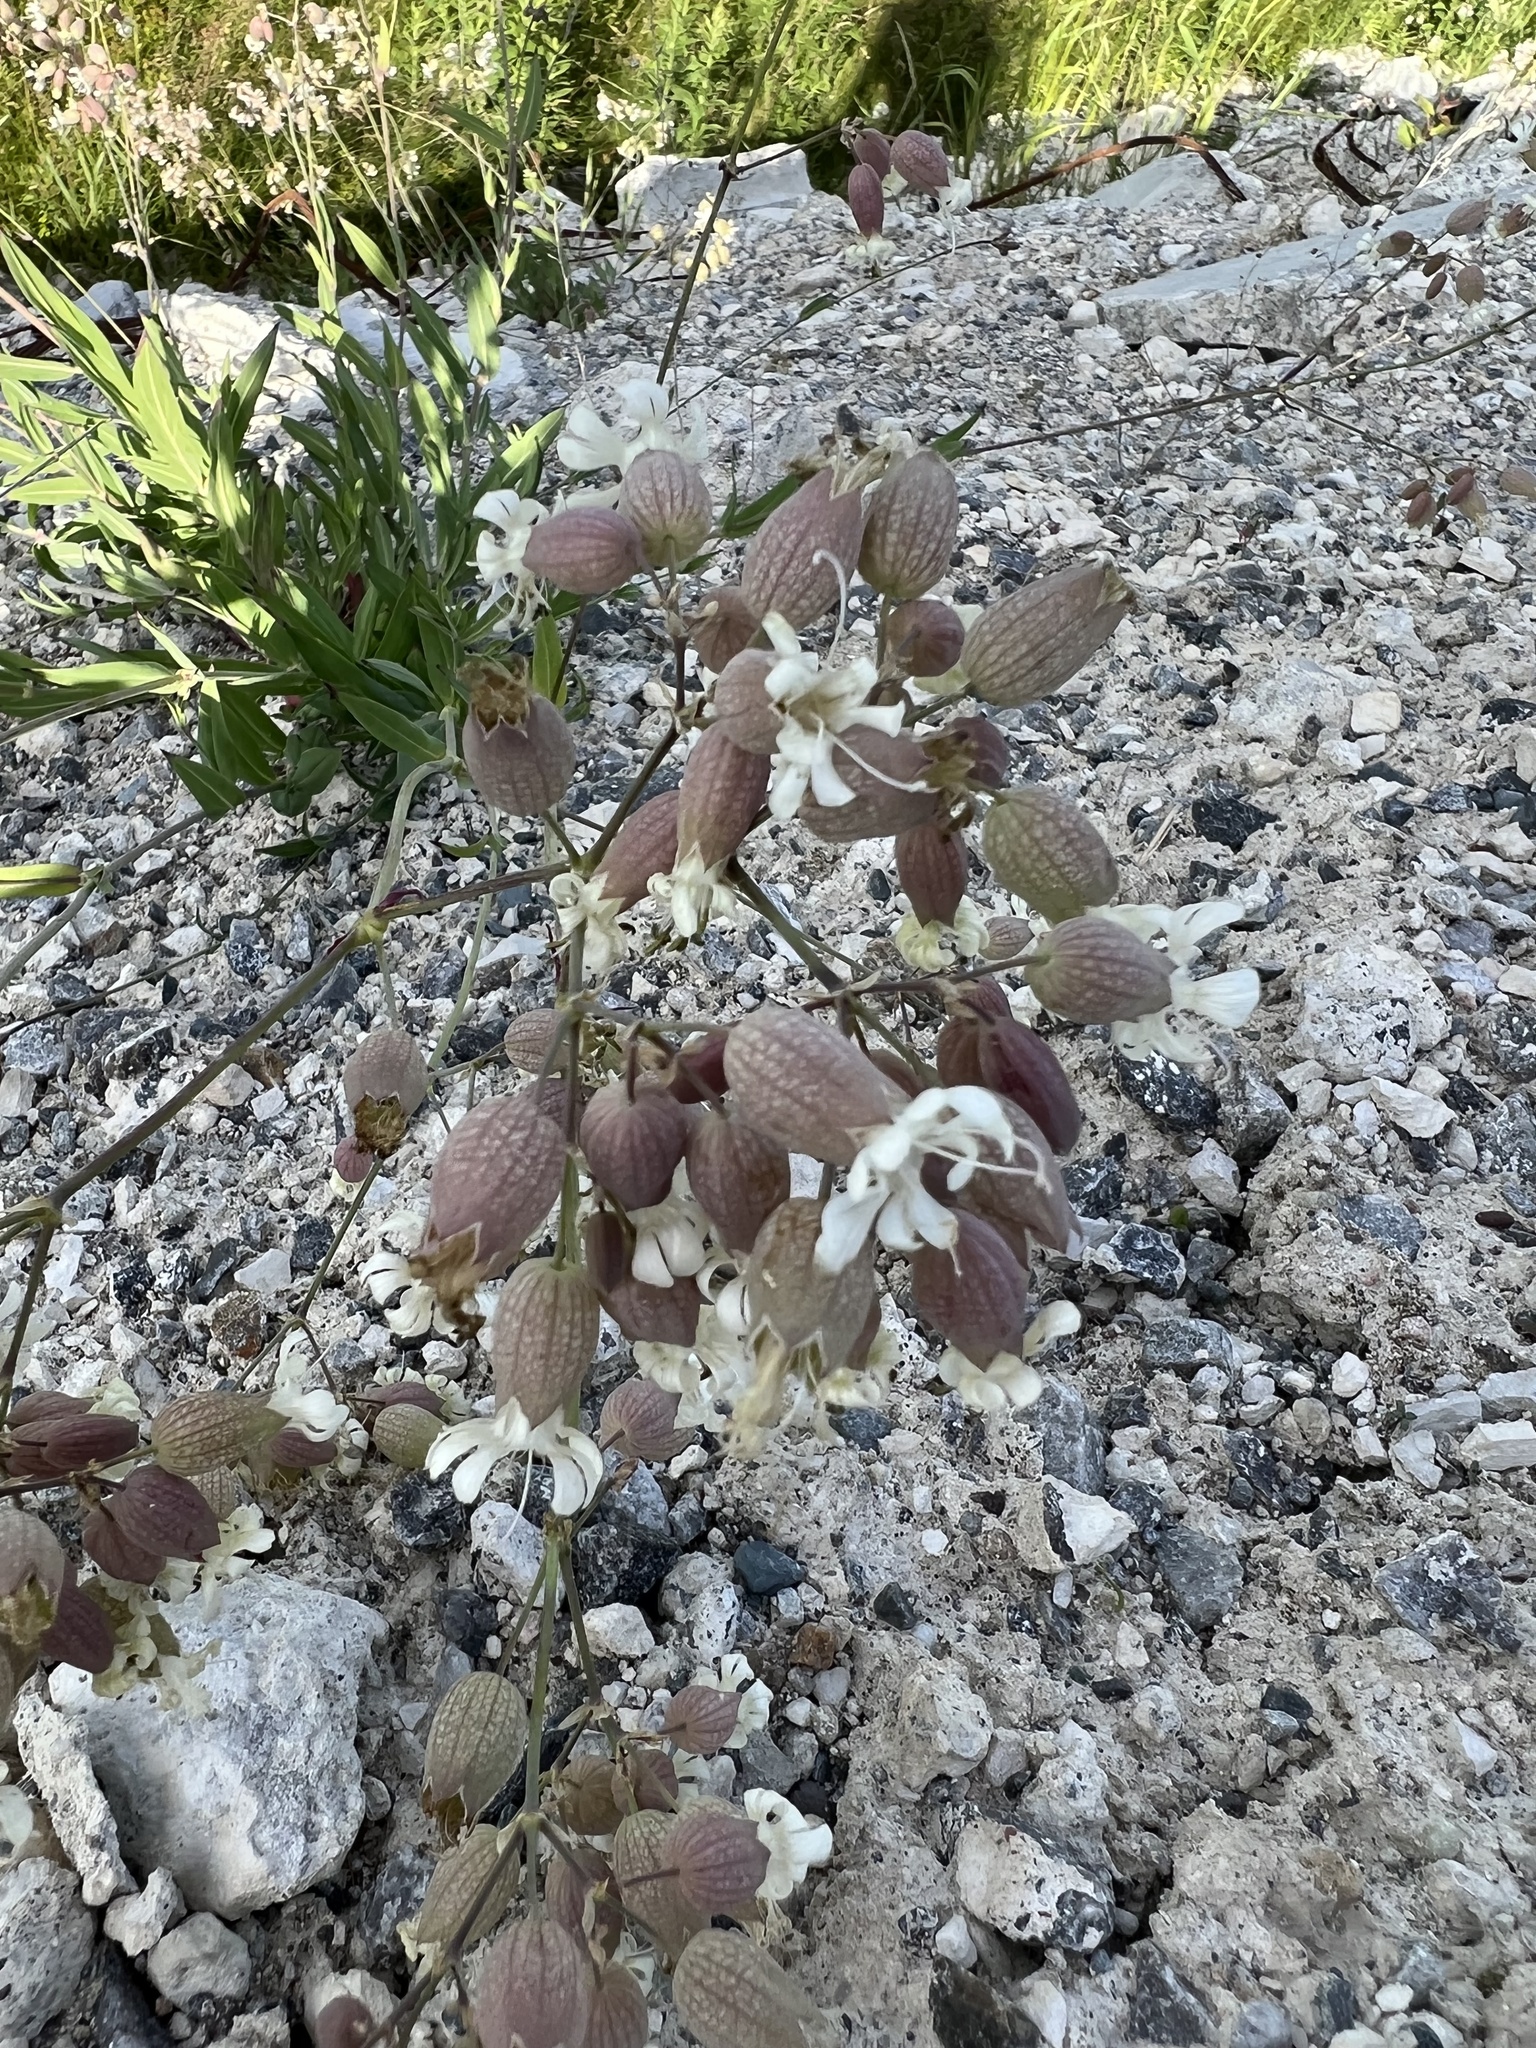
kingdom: Plantae
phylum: Tracheophyta
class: Magnoliopsida
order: Caryophyllales
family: Caryophyllaceae
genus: Silene
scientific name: Silene vulgaris
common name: Bladder campion
